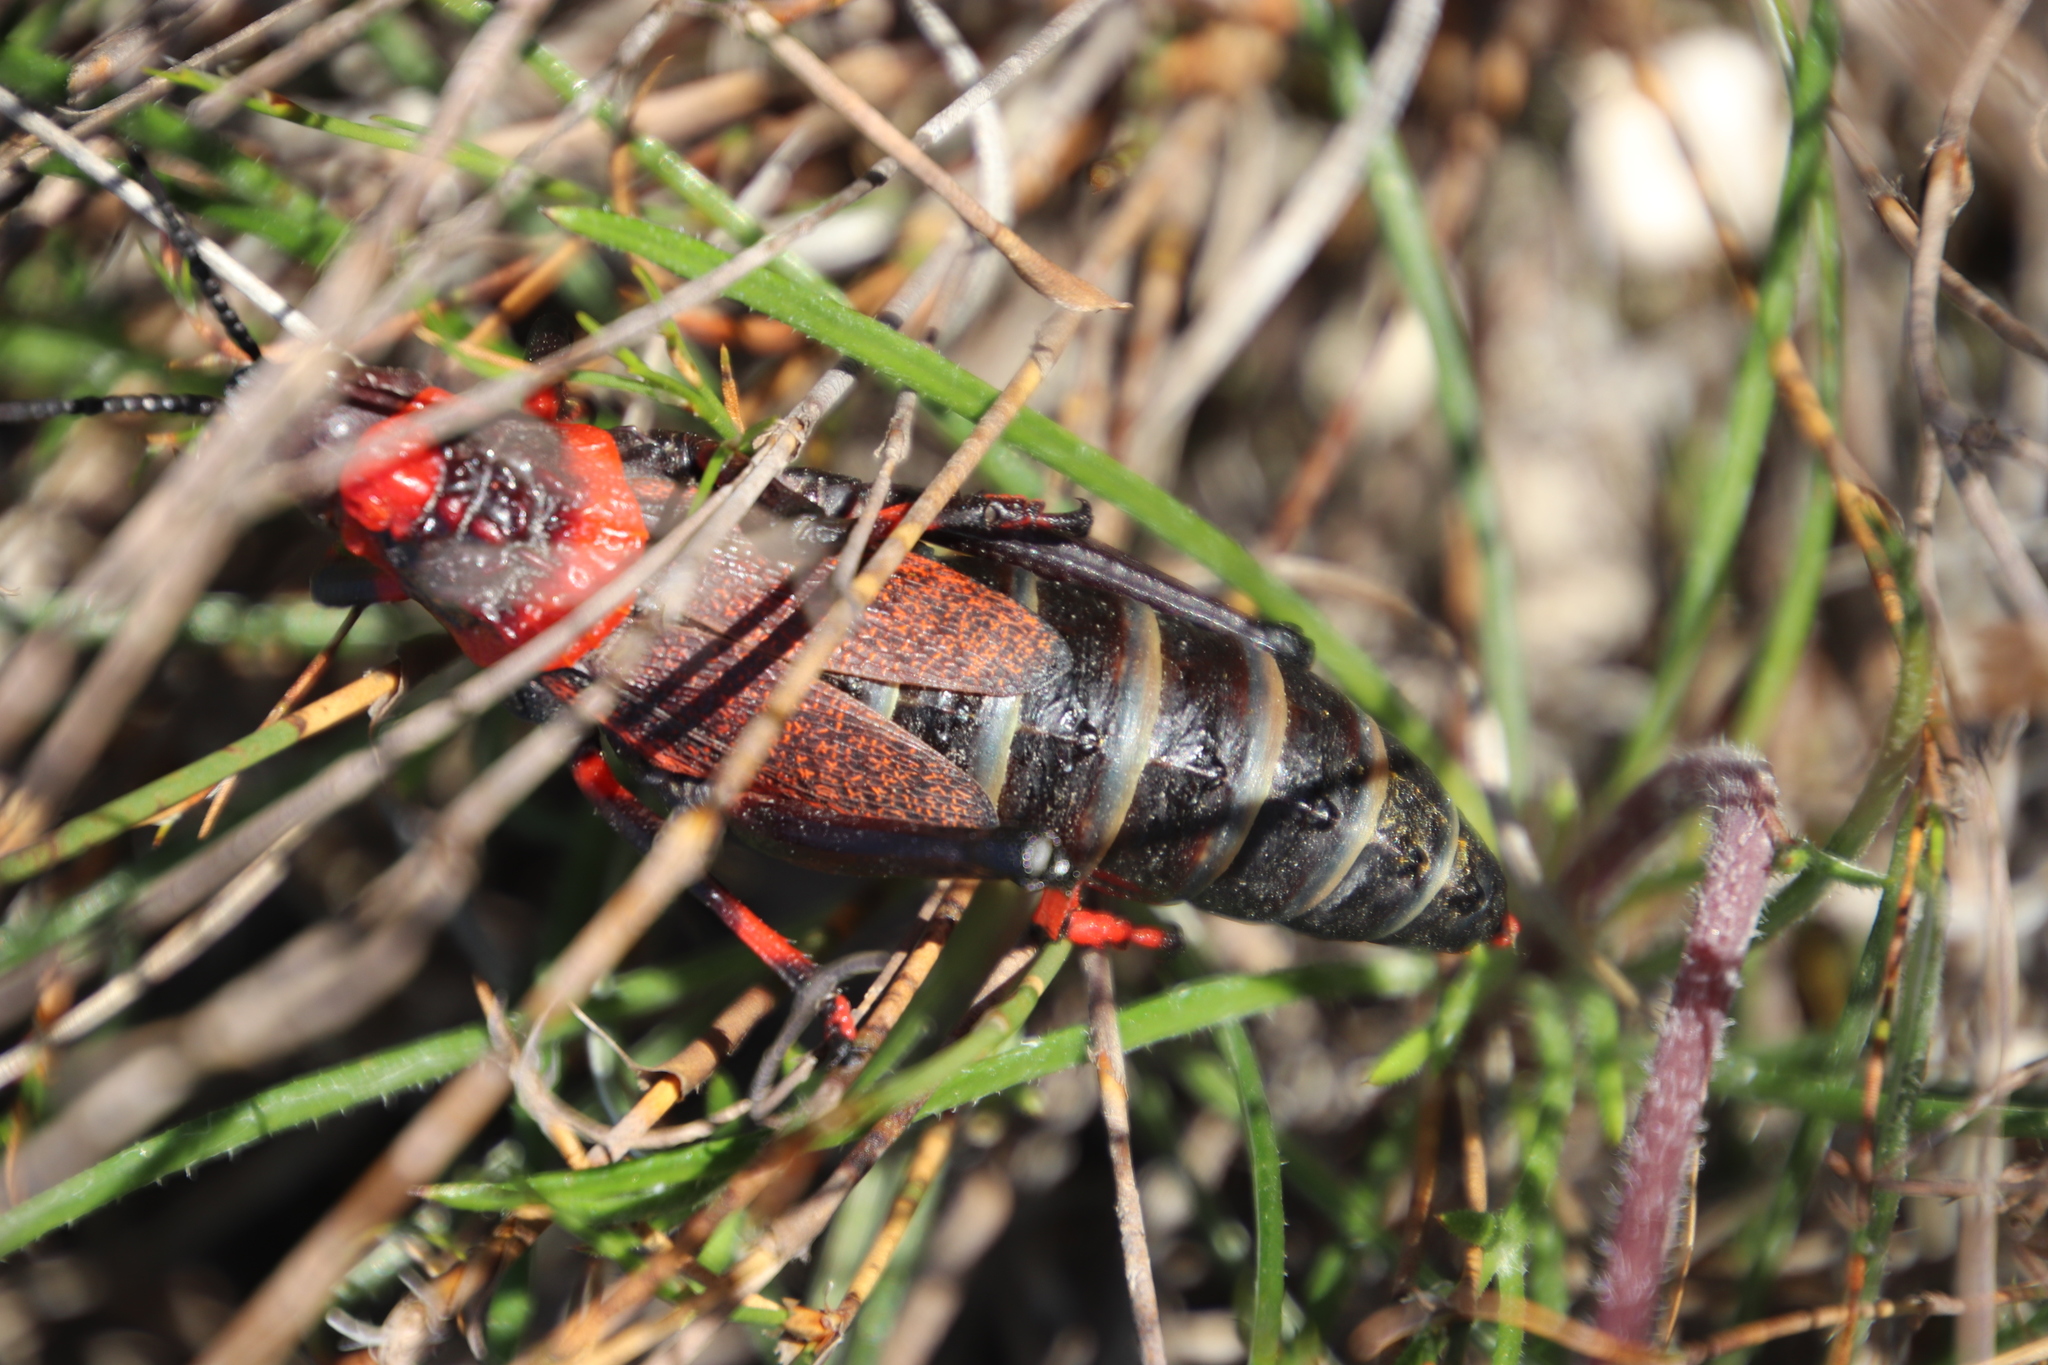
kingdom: Animalia
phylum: Arthropoda
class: Insecta
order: Orthoptera
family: Pyrgomorphidae
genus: Dictyophorus
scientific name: Dictyophorus spumans
